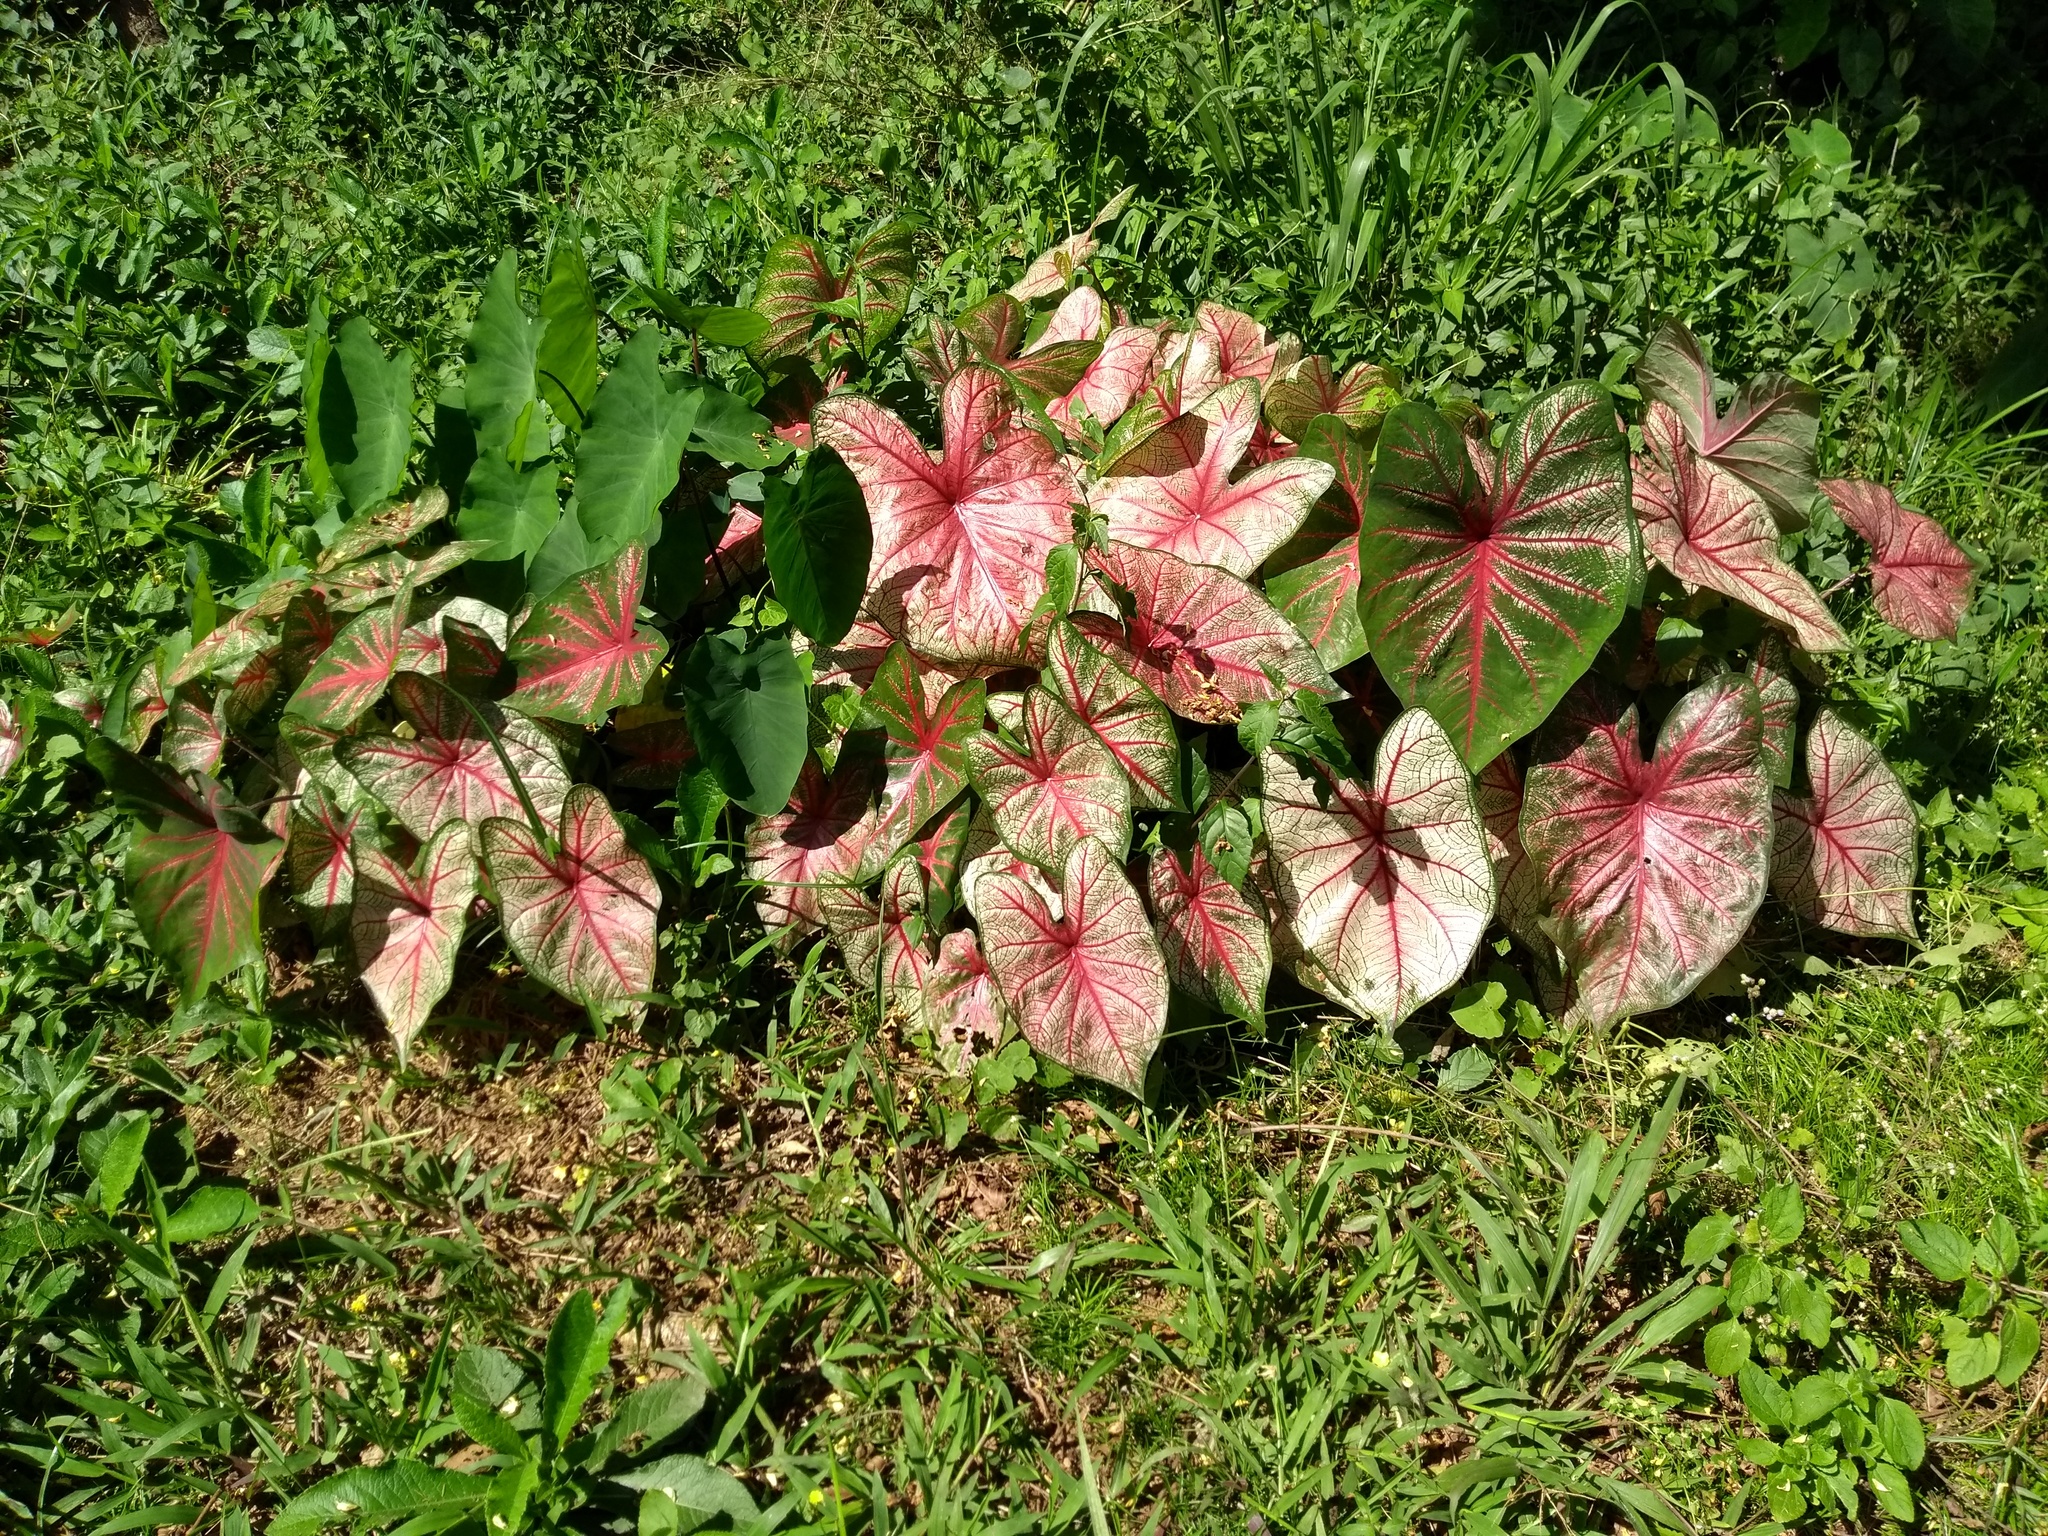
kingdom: Plantae
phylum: Tracheophyta
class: Liliopsida
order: Alismatales
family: Araceae
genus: Caladium
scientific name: Caladium bicolor
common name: Artist's pallet
